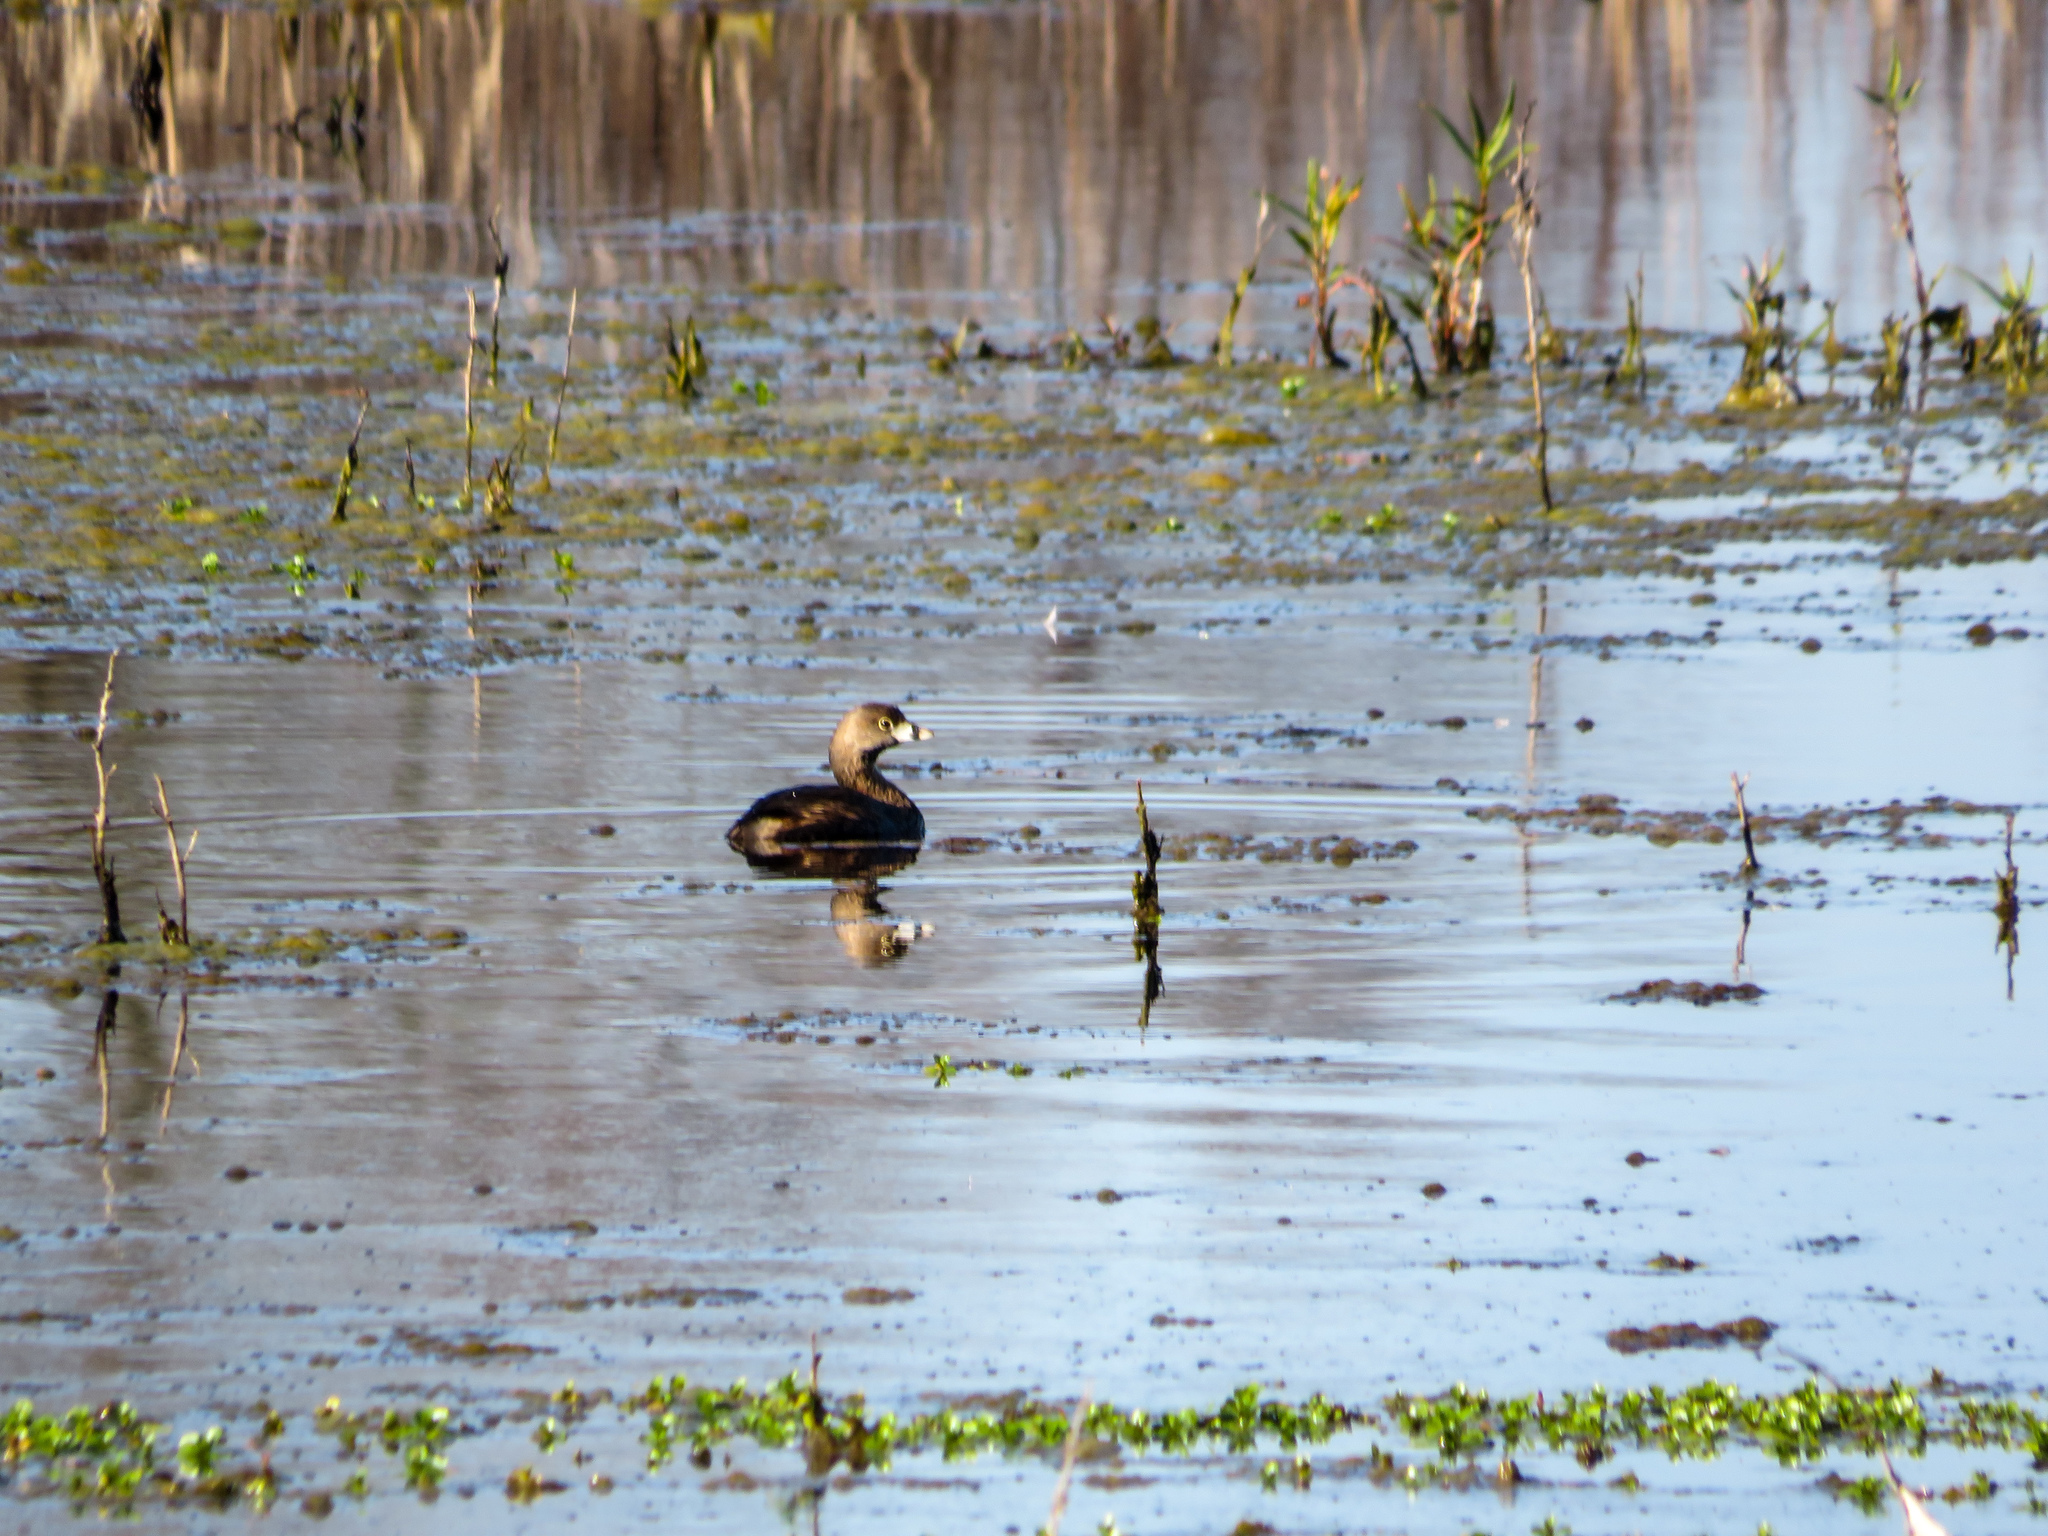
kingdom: Animalia
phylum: Chordata
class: Aves
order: Podicipediformes
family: Podicipedidae
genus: Podilymbus
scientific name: Podilymbus podiceps
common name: Pied-billed grebe
